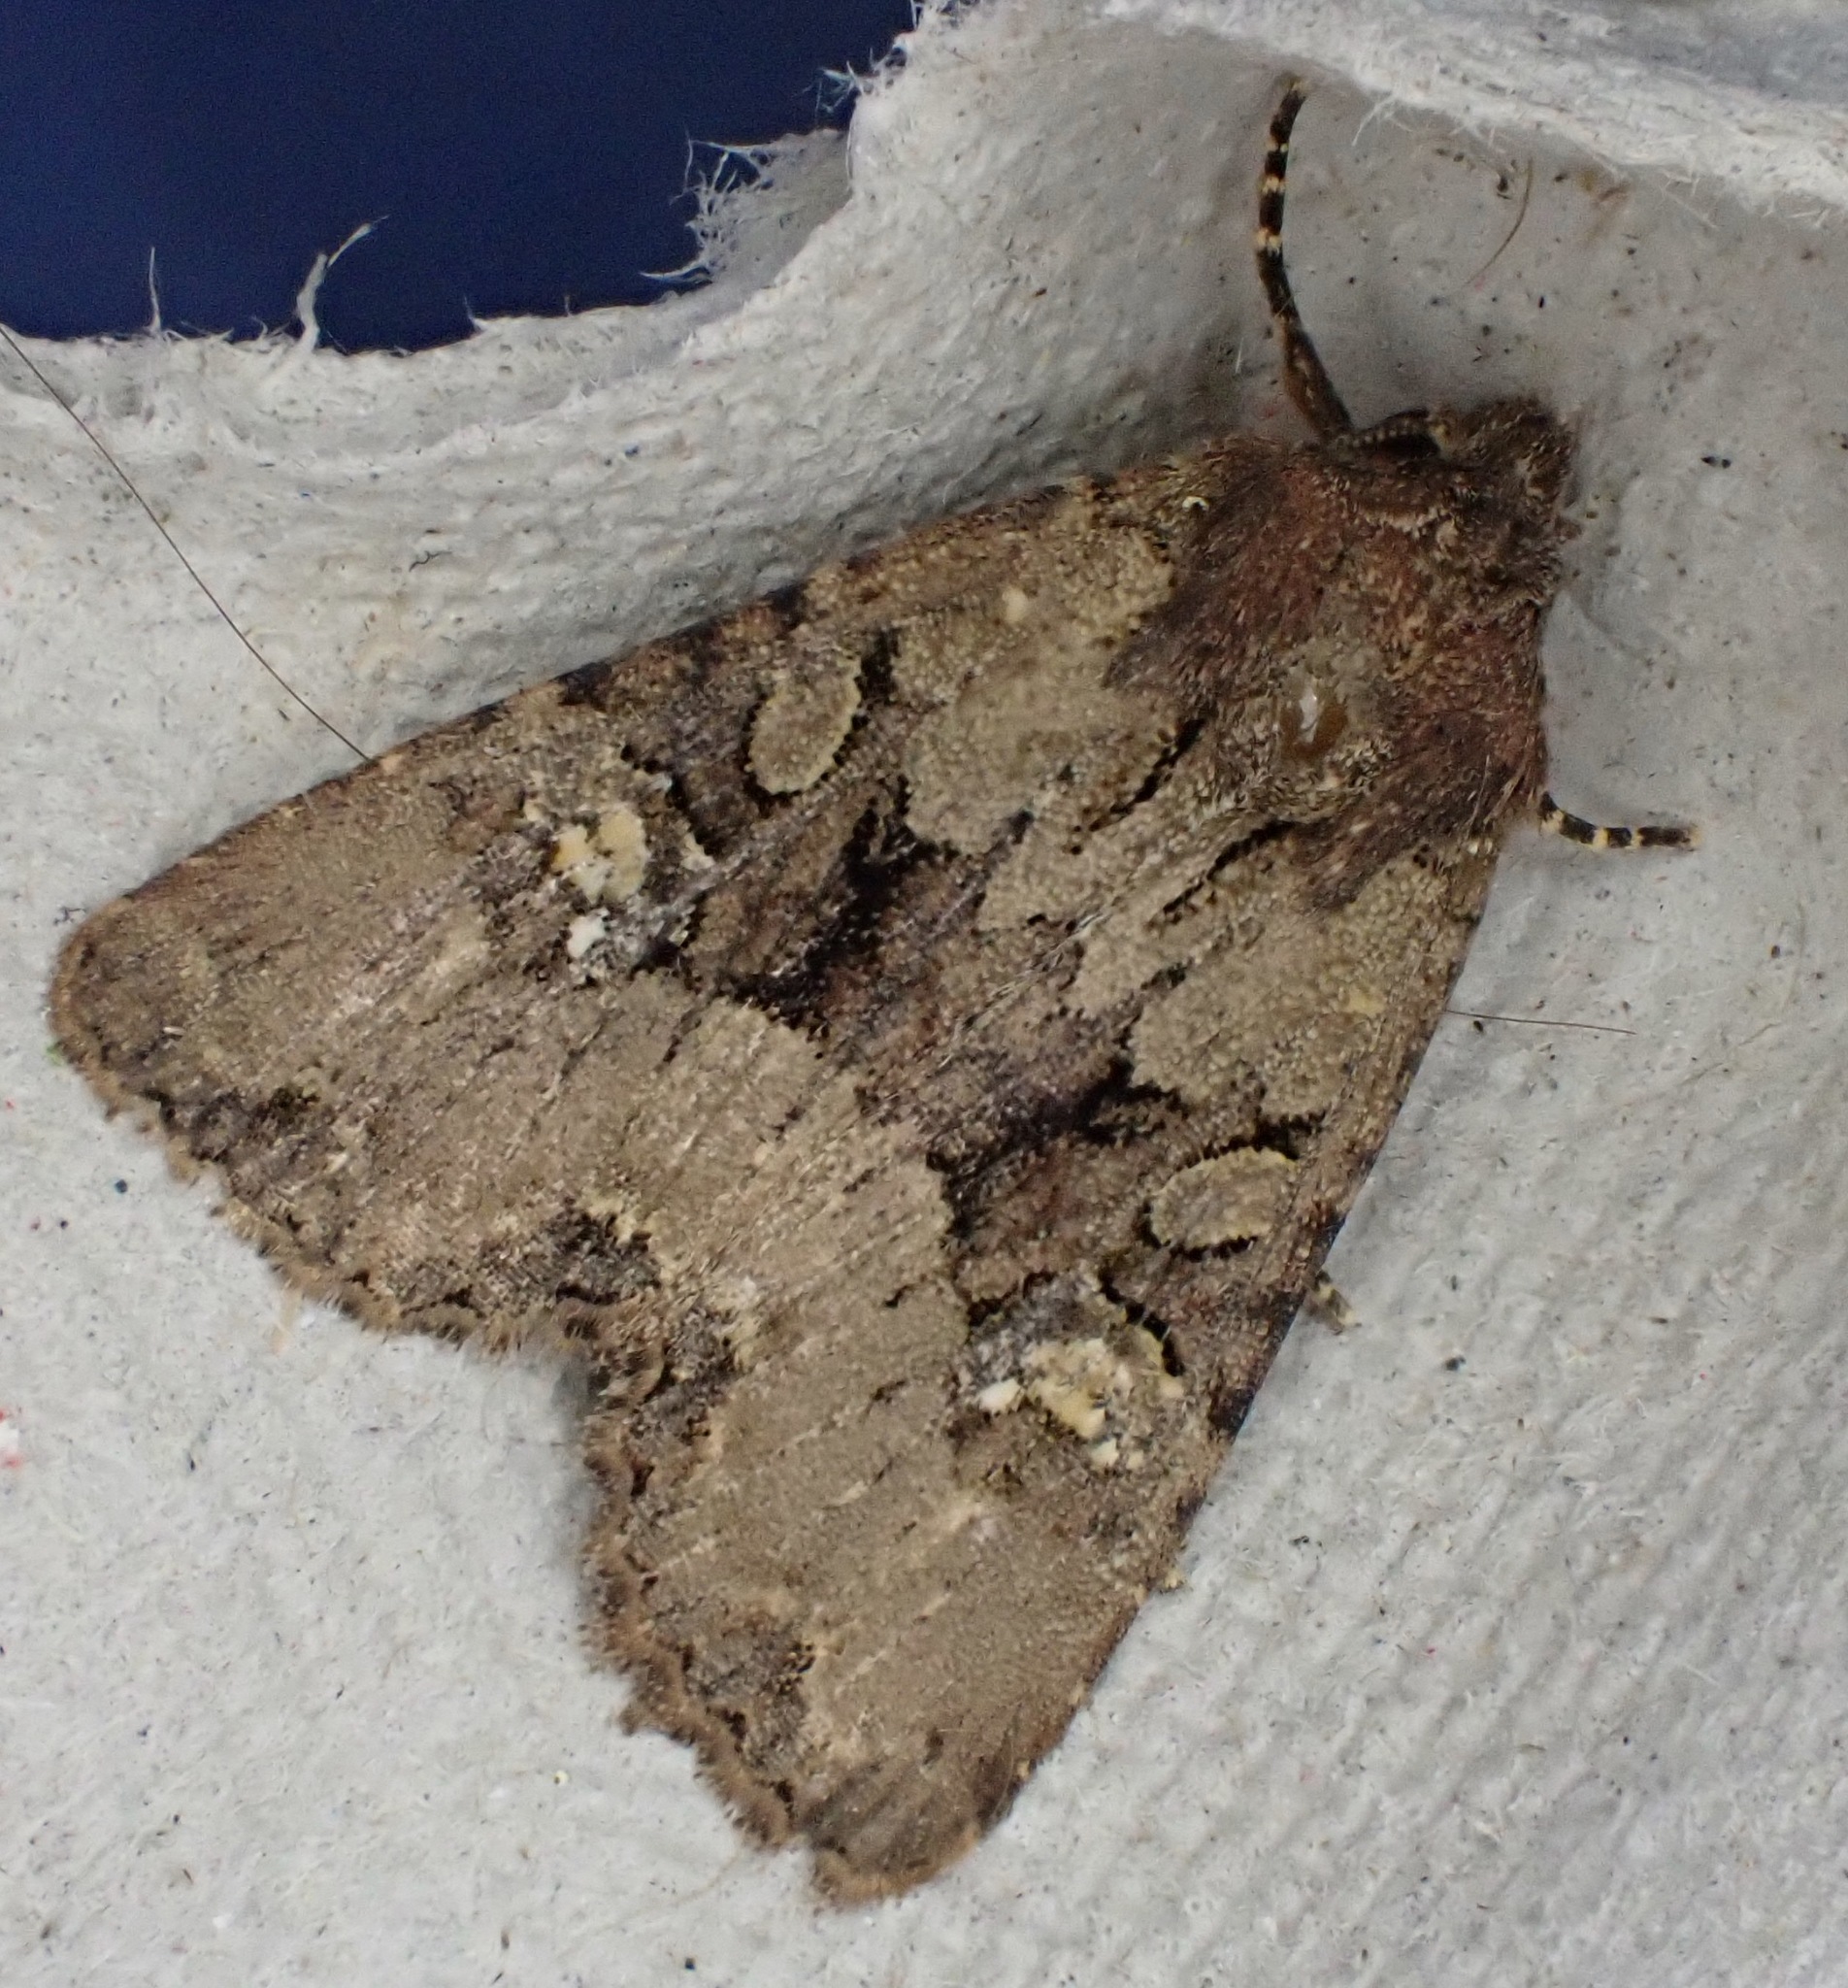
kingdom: Animalia
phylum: Arthropoda
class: Insecta
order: Lepidoptera
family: Noctuidae
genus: Mesapamea
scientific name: Mesapamea
